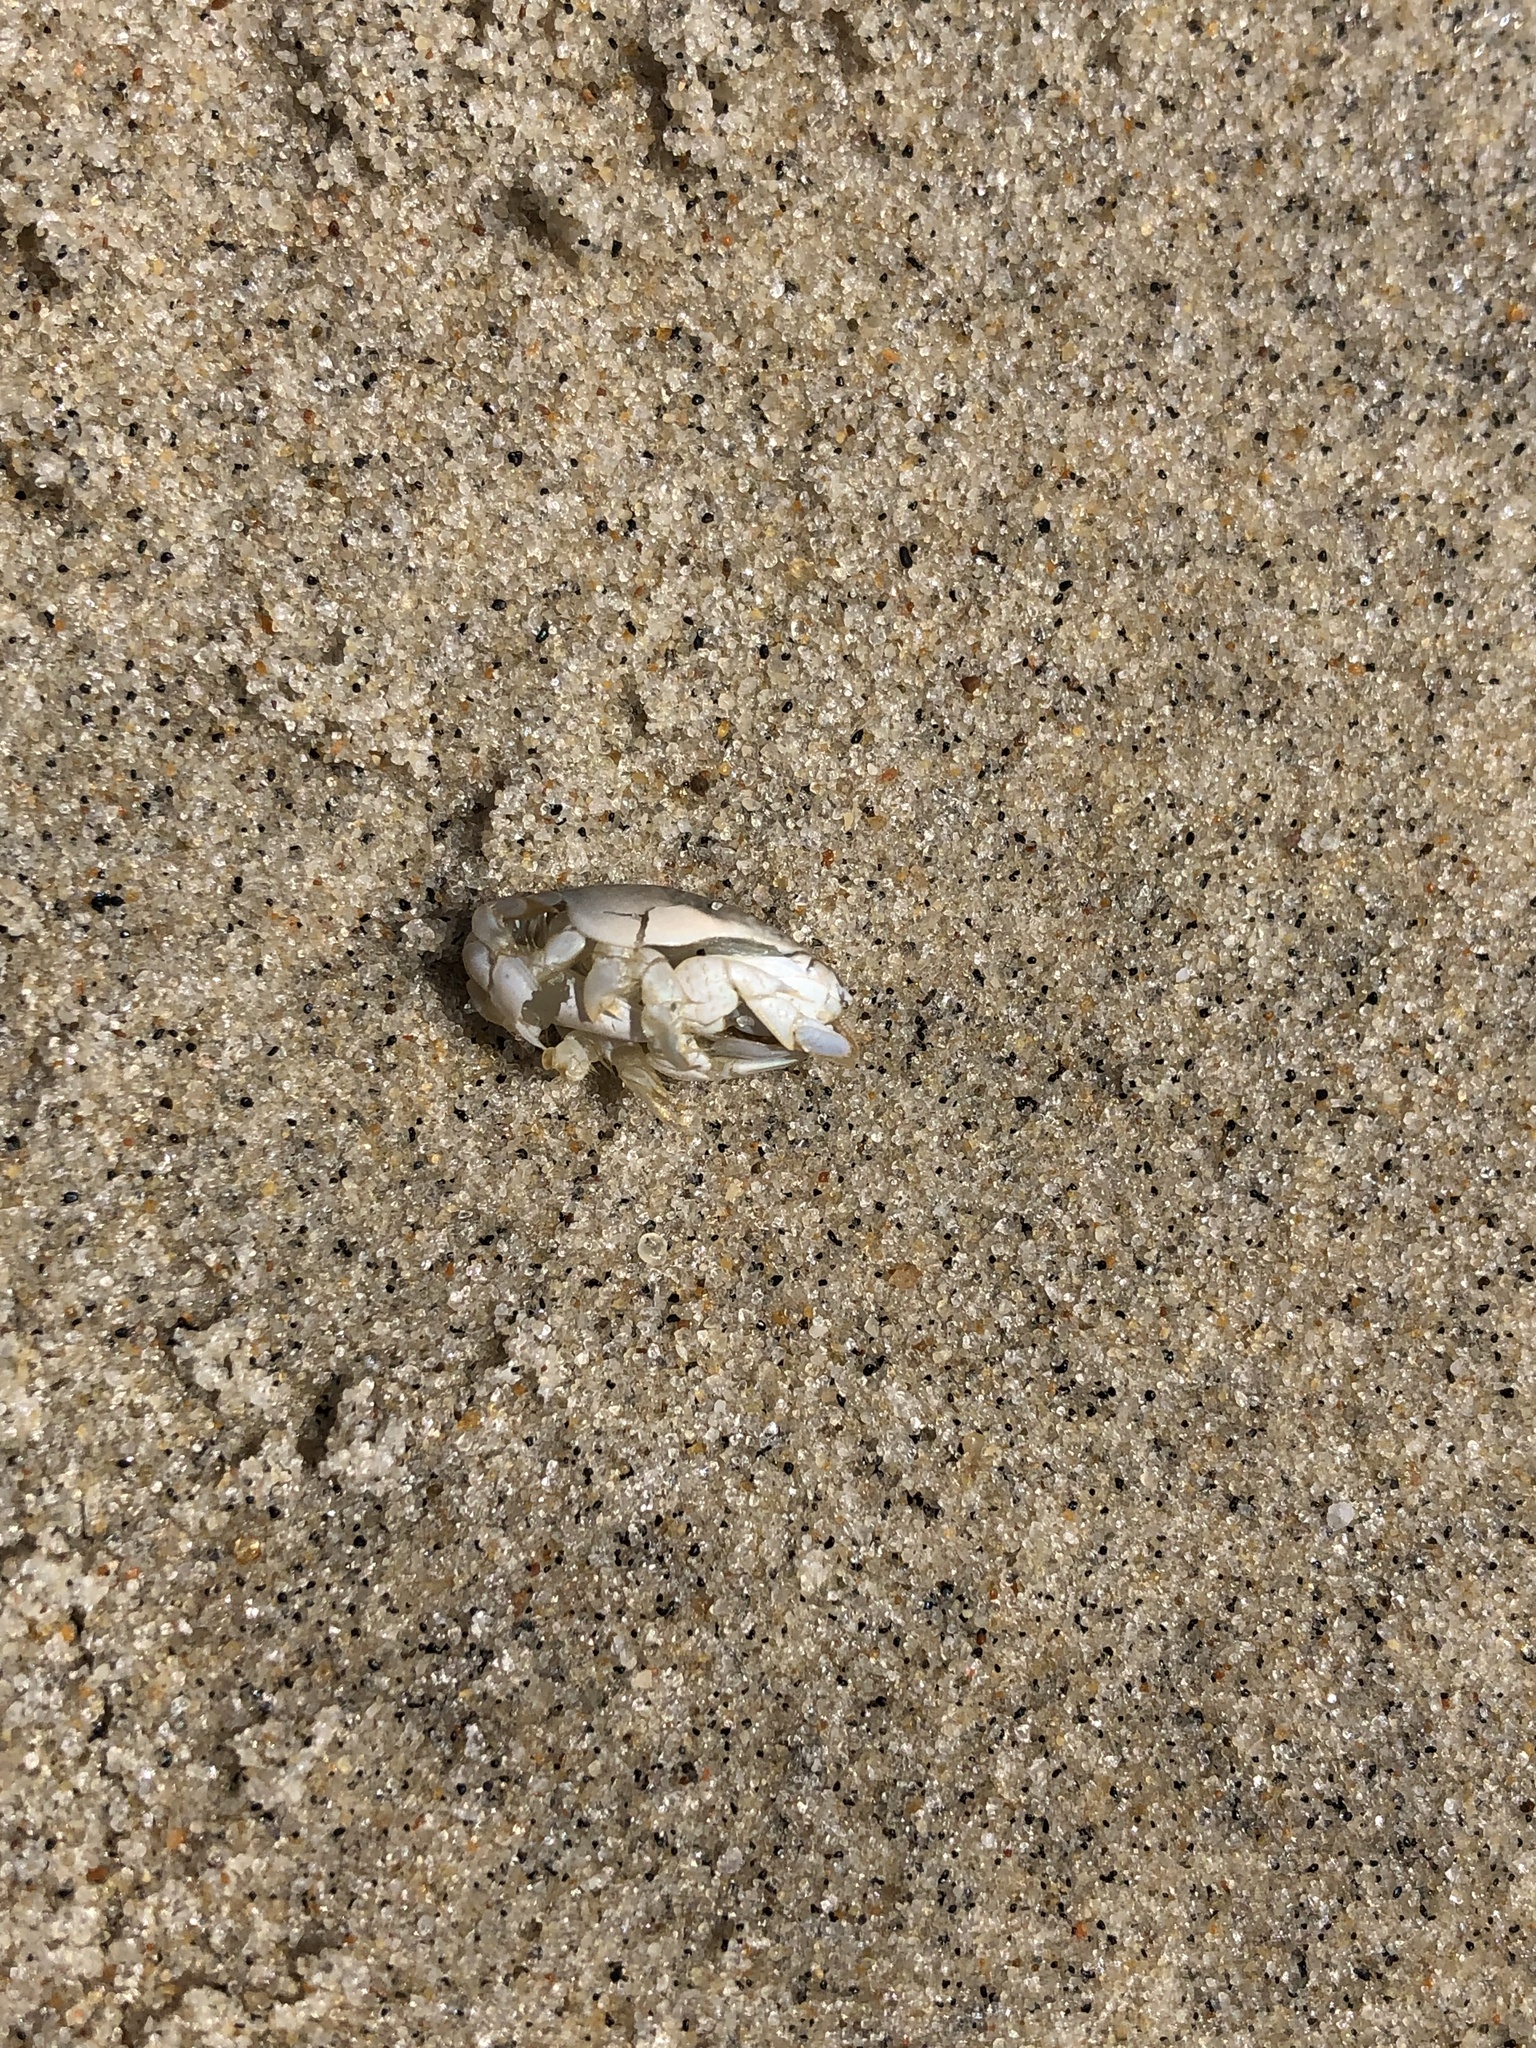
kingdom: Animalia
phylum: Arthropoda
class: Malacostraca
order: Decapoda
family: Hippidae
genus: Emerita
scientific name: Emerita talpoida
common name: Atlantic sand crab
